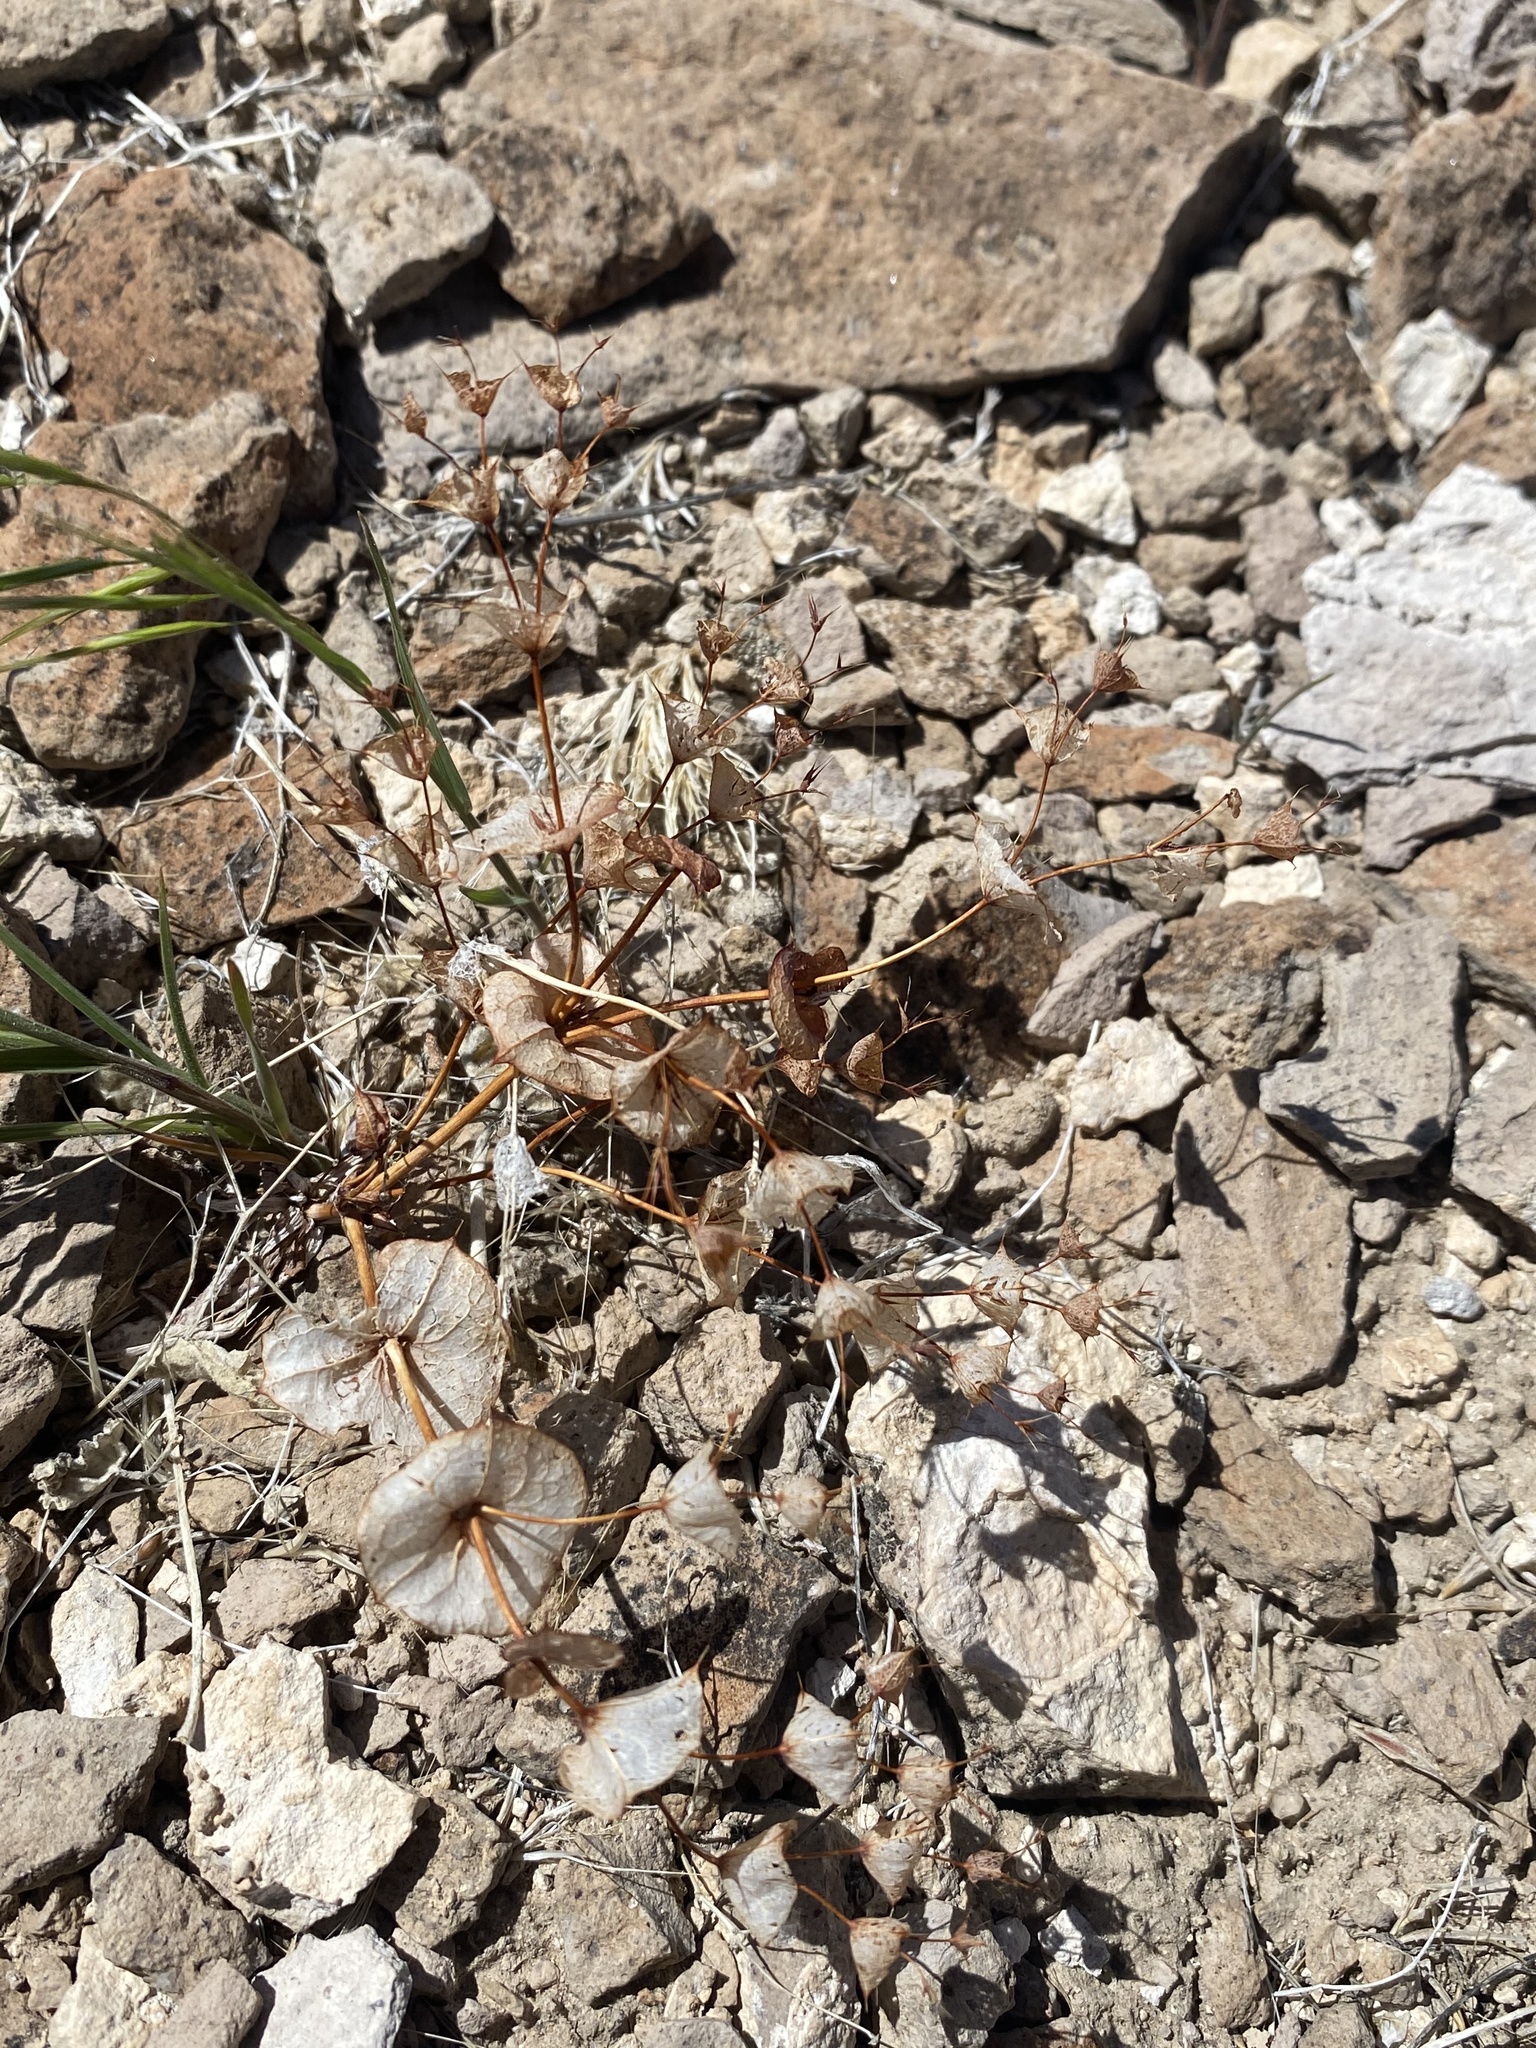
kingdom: Plantae
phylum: Tracheophyta
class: Magnoliopsida
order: Caryophyllales
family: Polygonaceae
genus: Oxytheca
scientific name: Oxytheca perfoliata
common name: Round-leaf puncturebract
